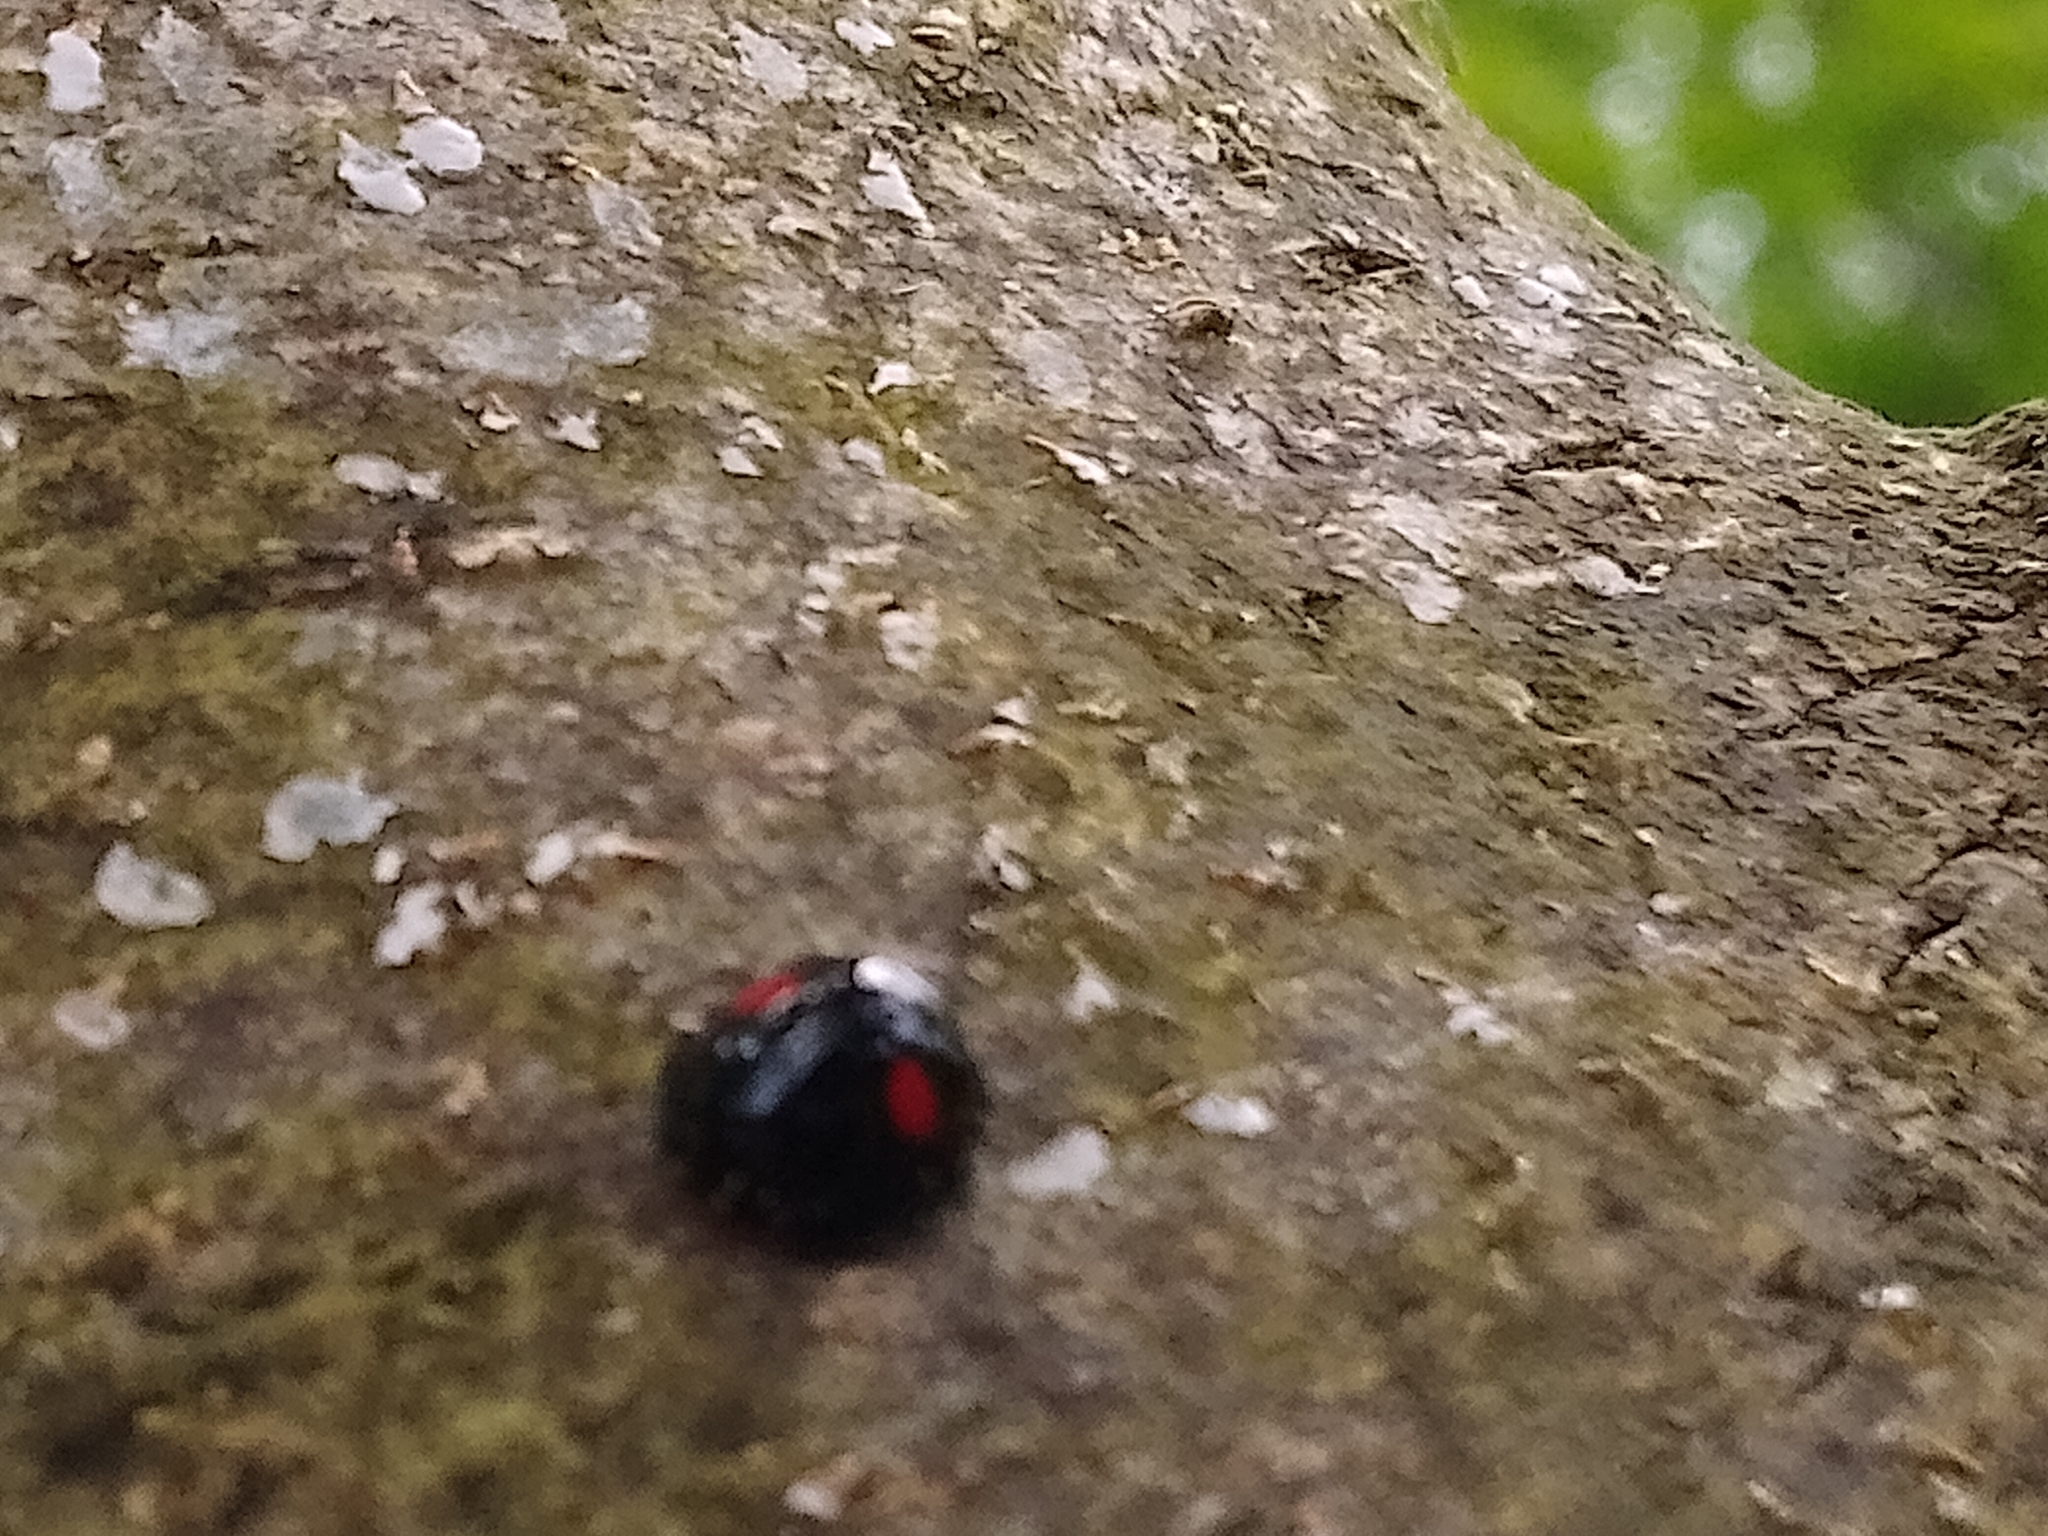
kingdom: Animalia
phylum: Arthropoda
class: Insecta
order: Coleoptera
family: Coccinellidae
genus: Chilocorus
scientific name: Chilocorus renipustulatus
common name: Kidney-spot ladybird
